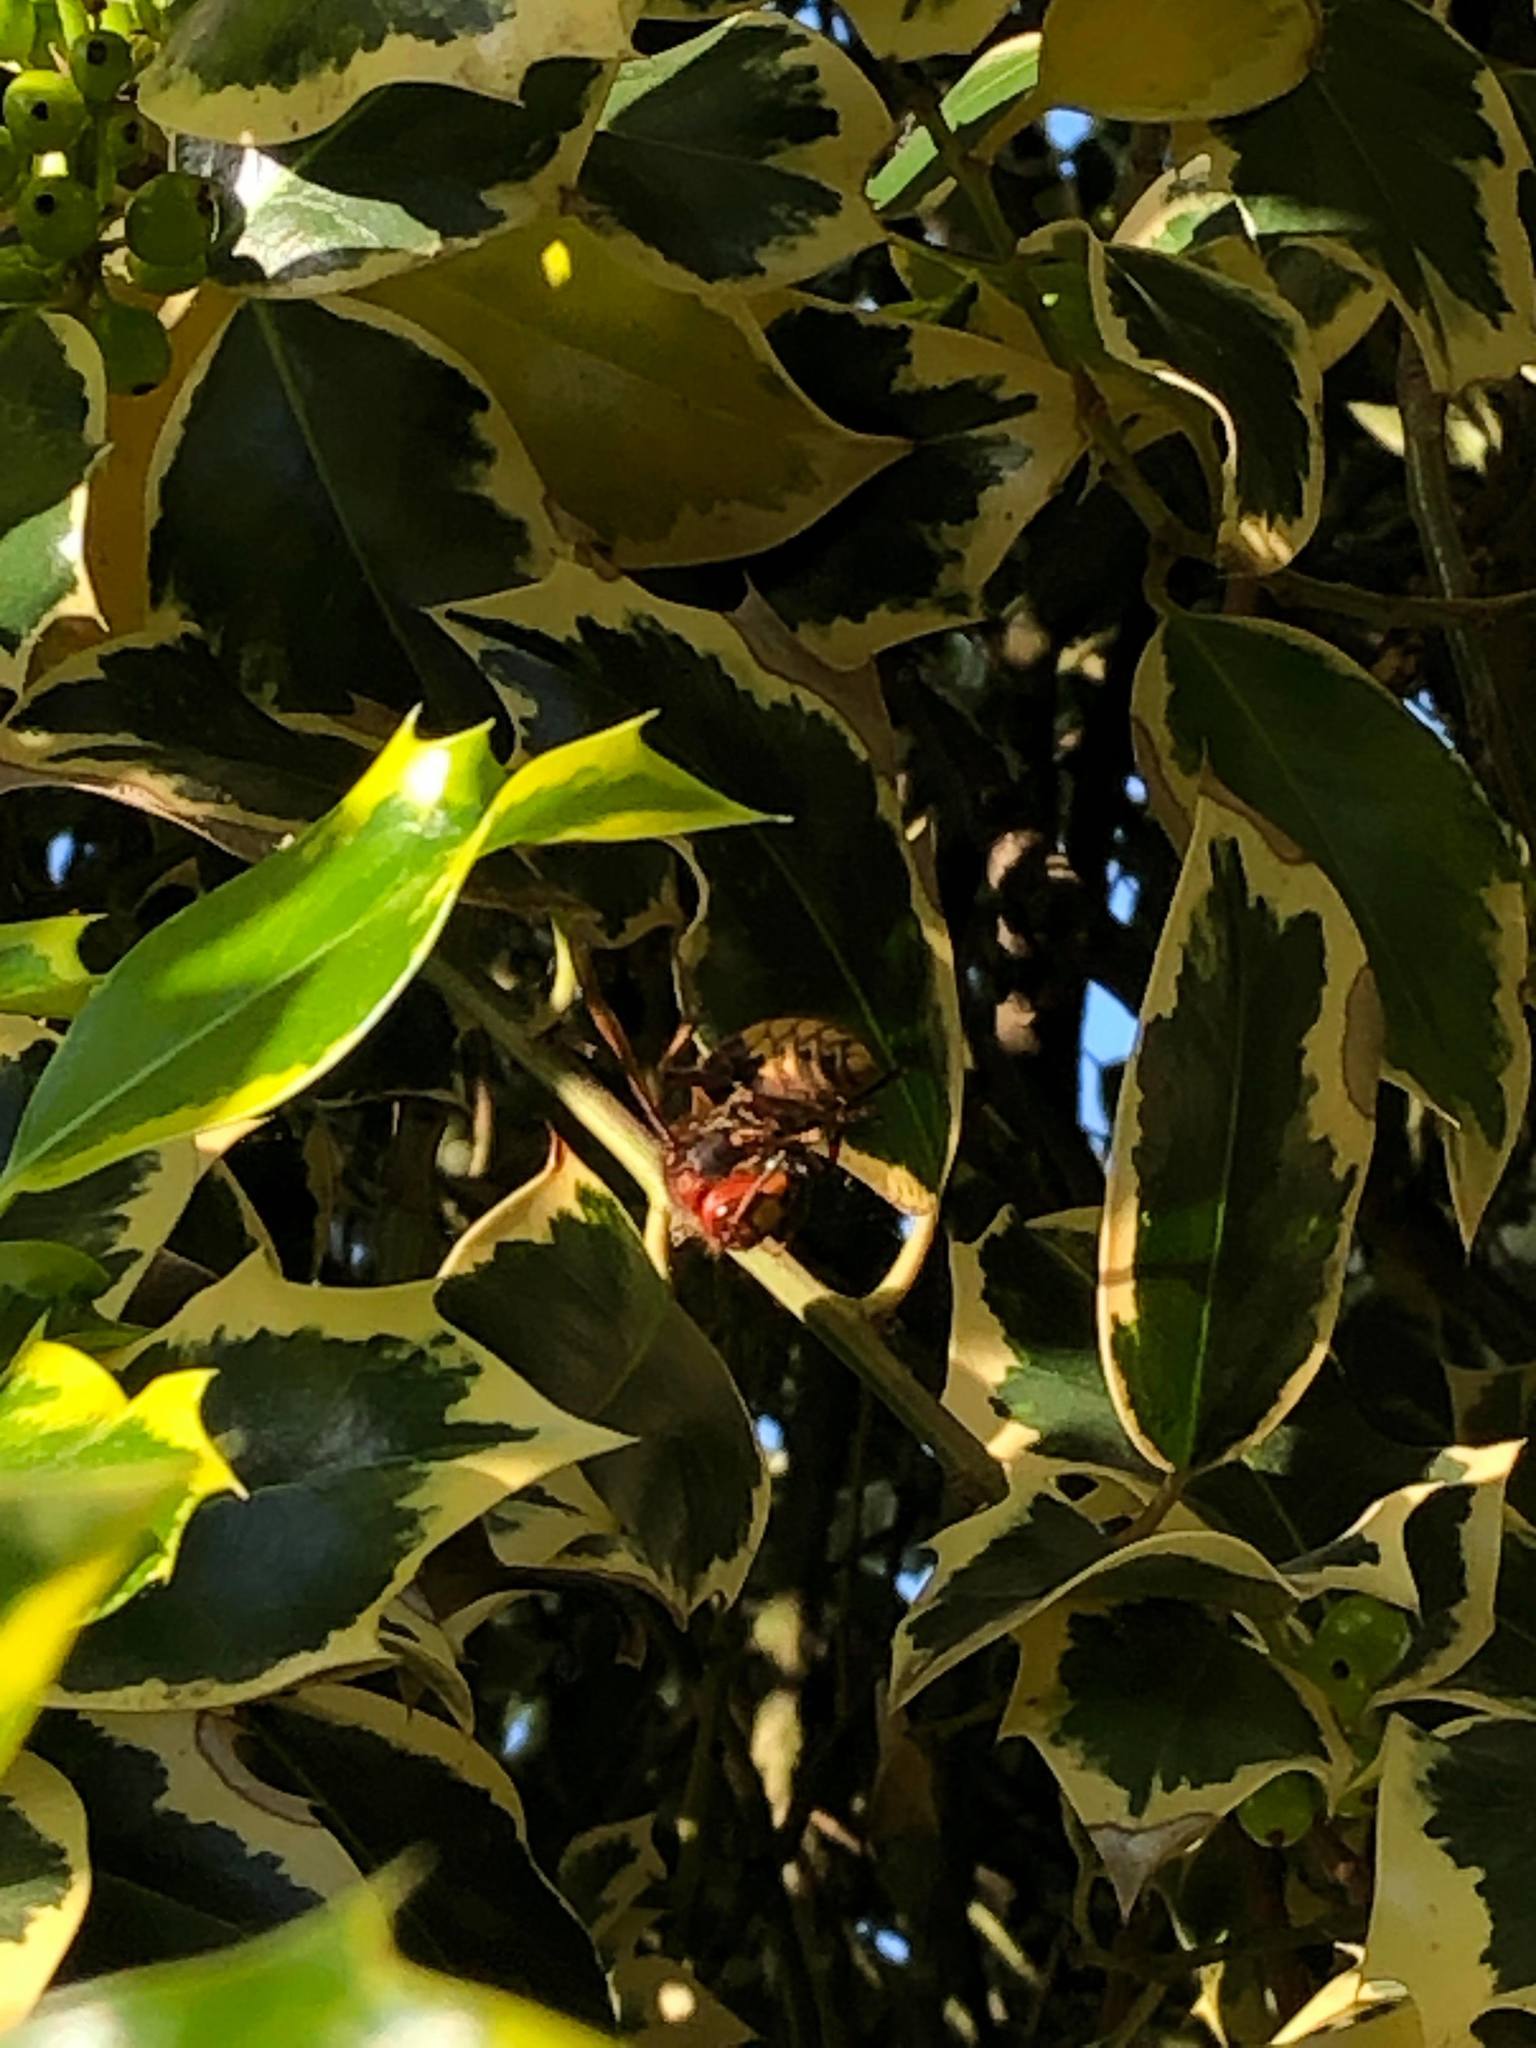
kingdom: Animalia
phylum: Arthropoda
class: Insecta
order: Hymenoptera
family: Vespidae
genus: Vespa
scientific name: Vespa crabro
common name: Hornet
